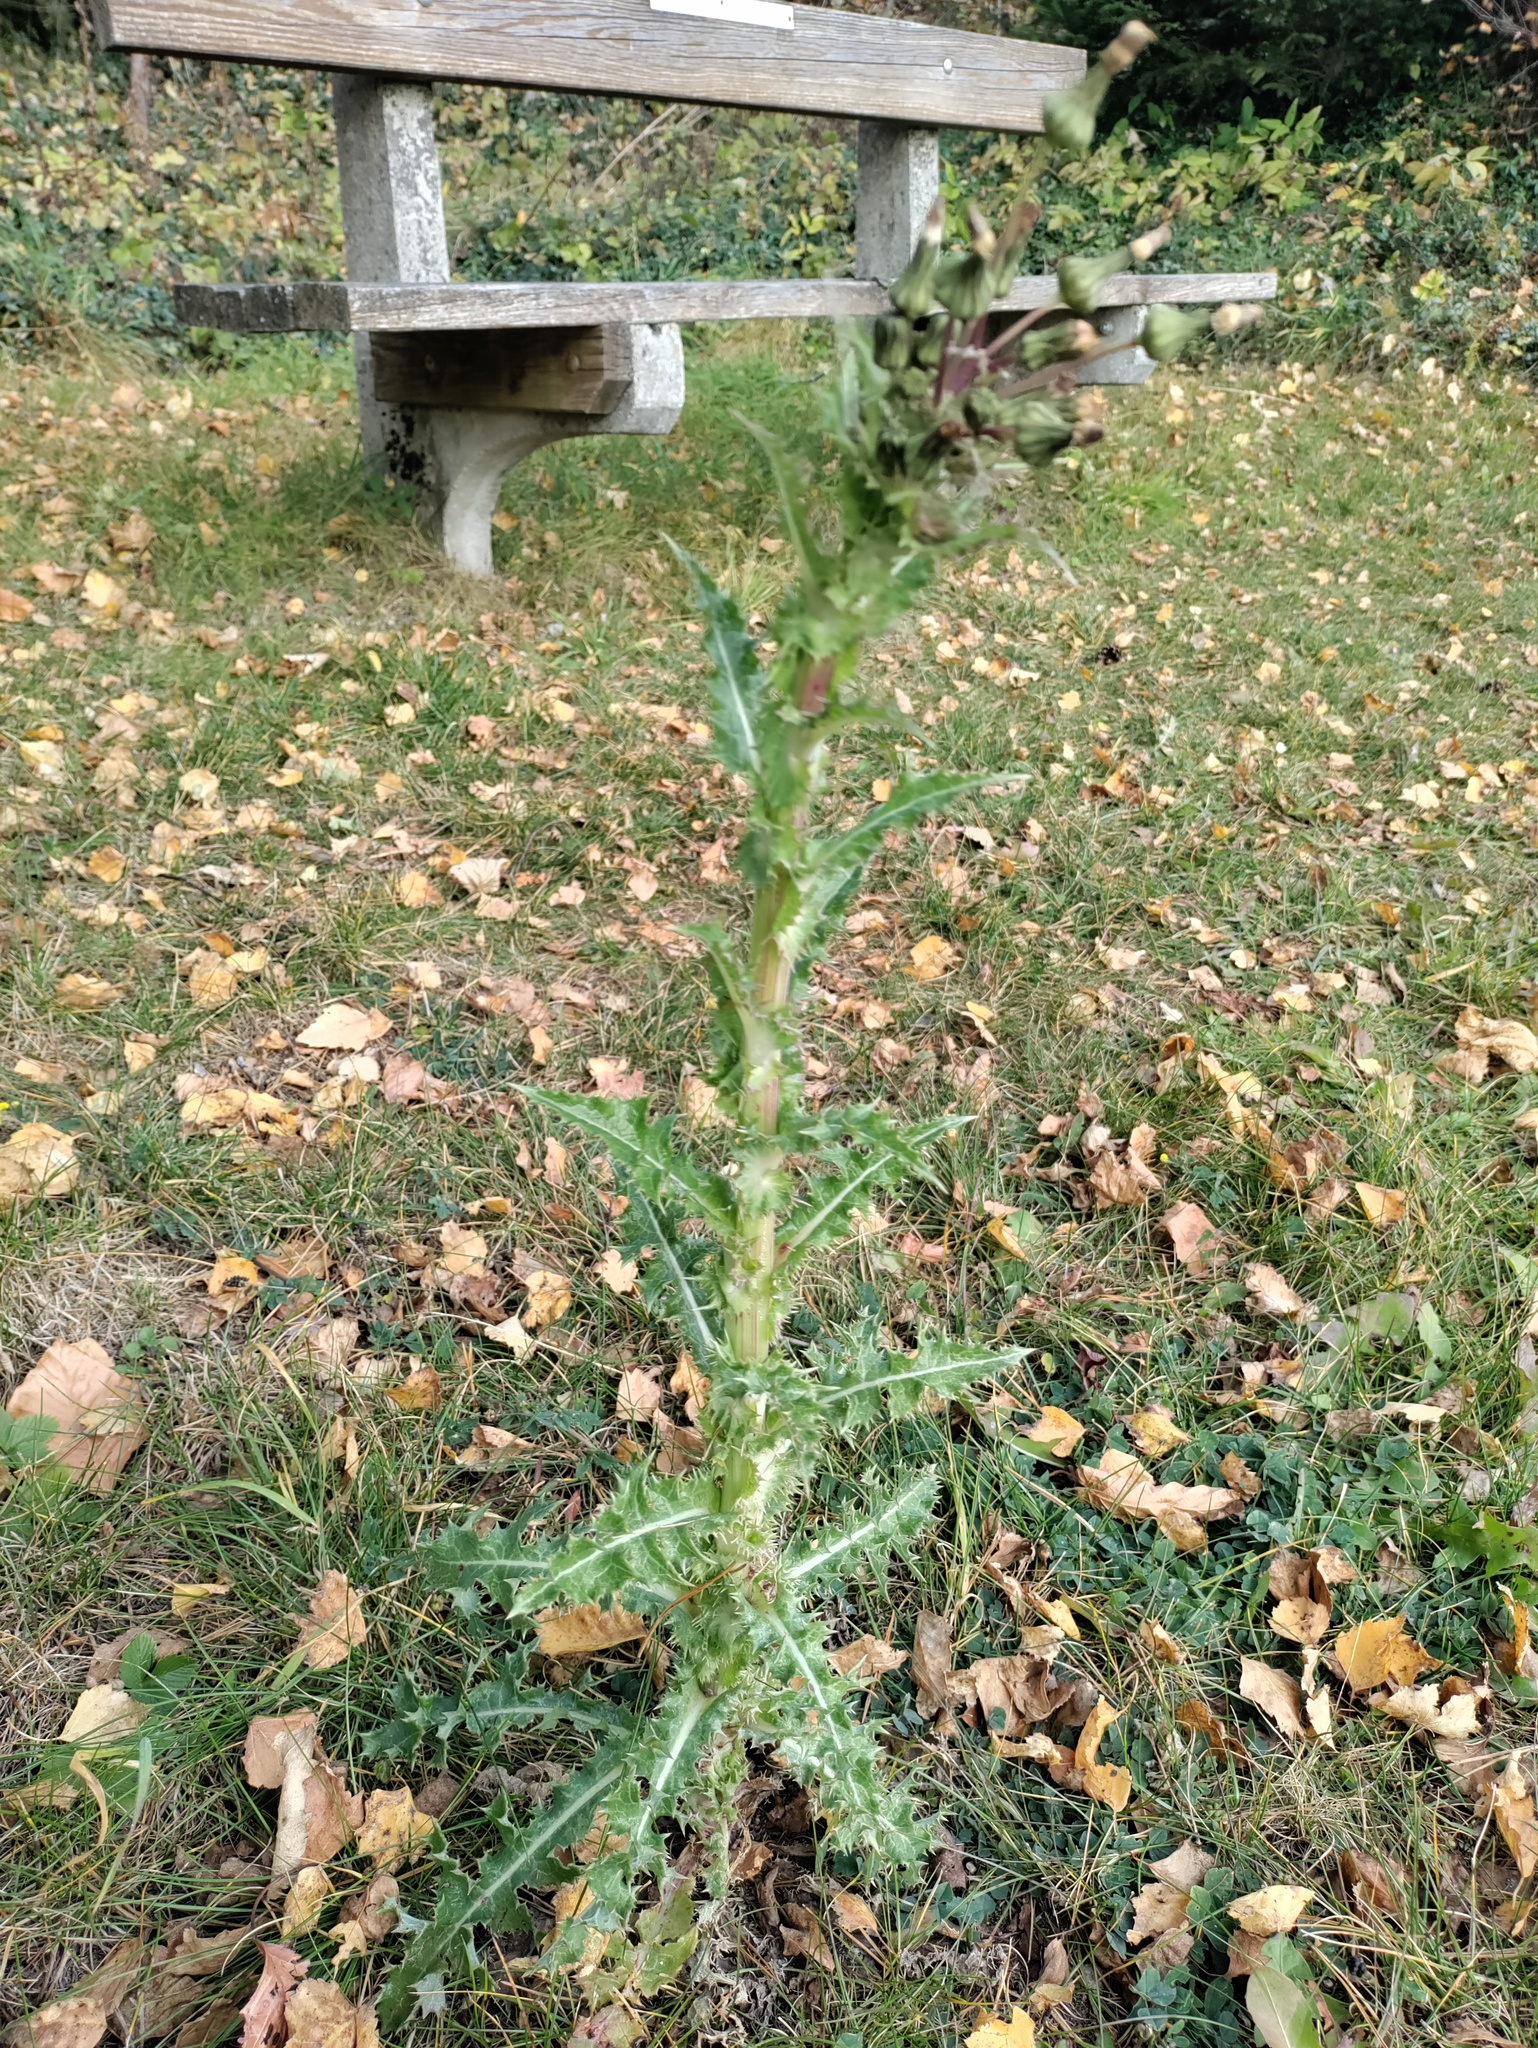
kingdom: Plantae
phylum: Tracheophyta
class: Magnoliopsida
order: Asterales
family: Asteraceae
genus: Sonchus
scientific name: Sonchus asper
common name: Prickly sow-thistle
